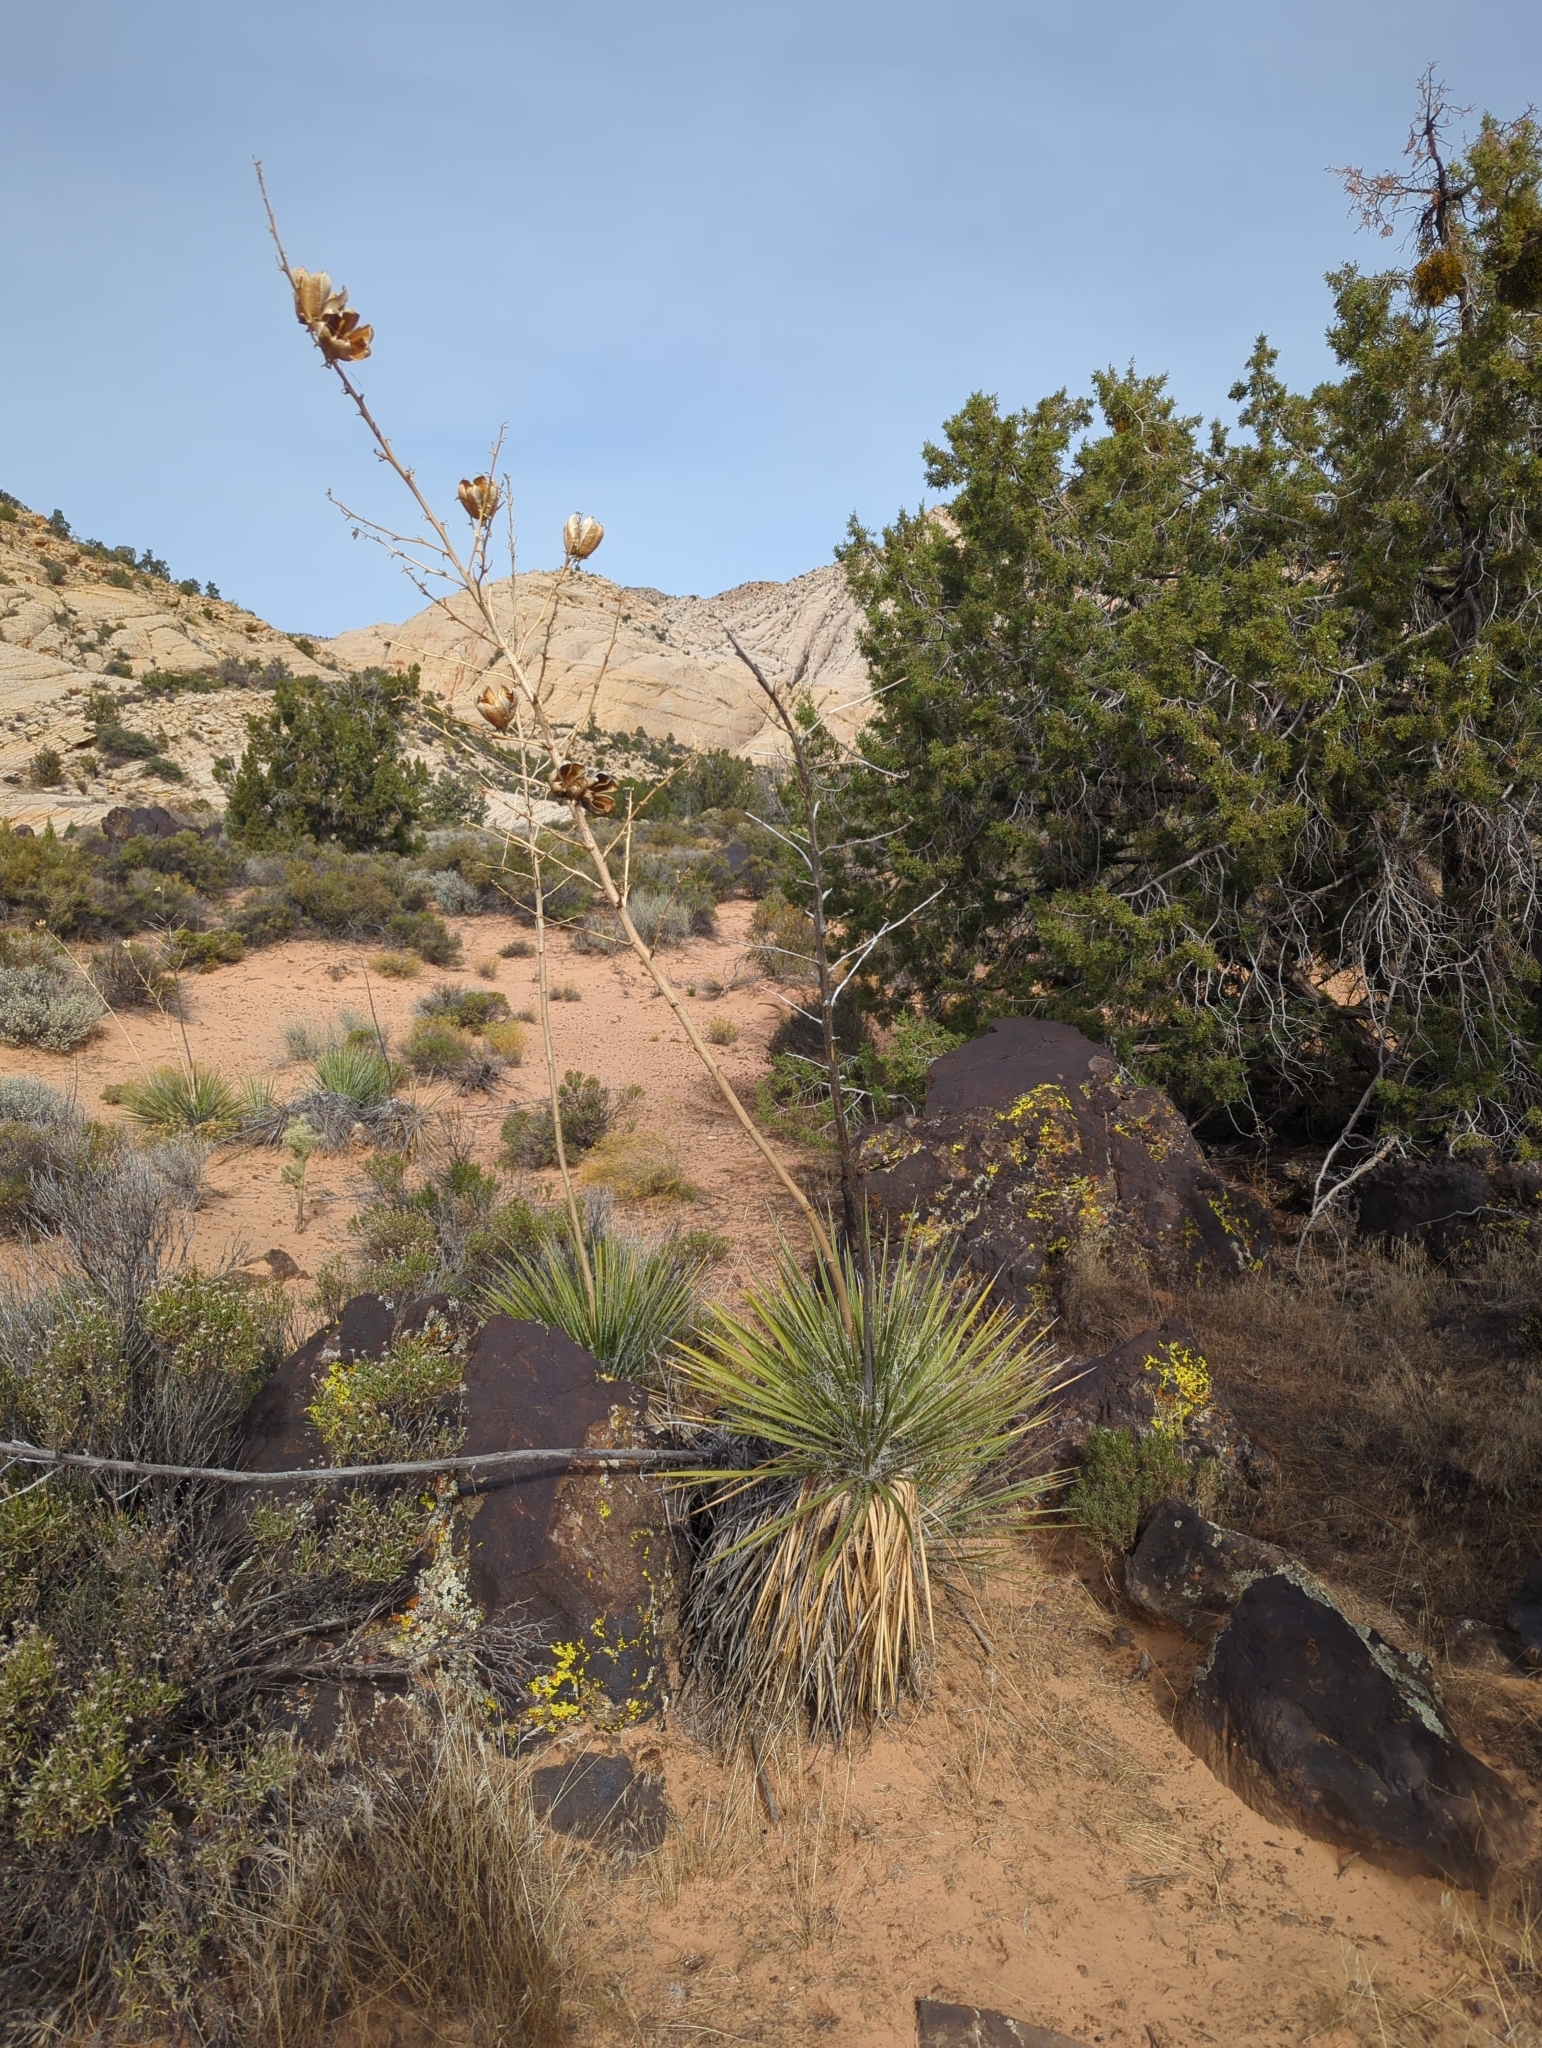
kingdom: Plantae
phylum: Tracheophyta
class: Liliopsida
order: Asparagales
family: Asparagaceae
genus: Yucca
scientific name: Yucca utahensis
